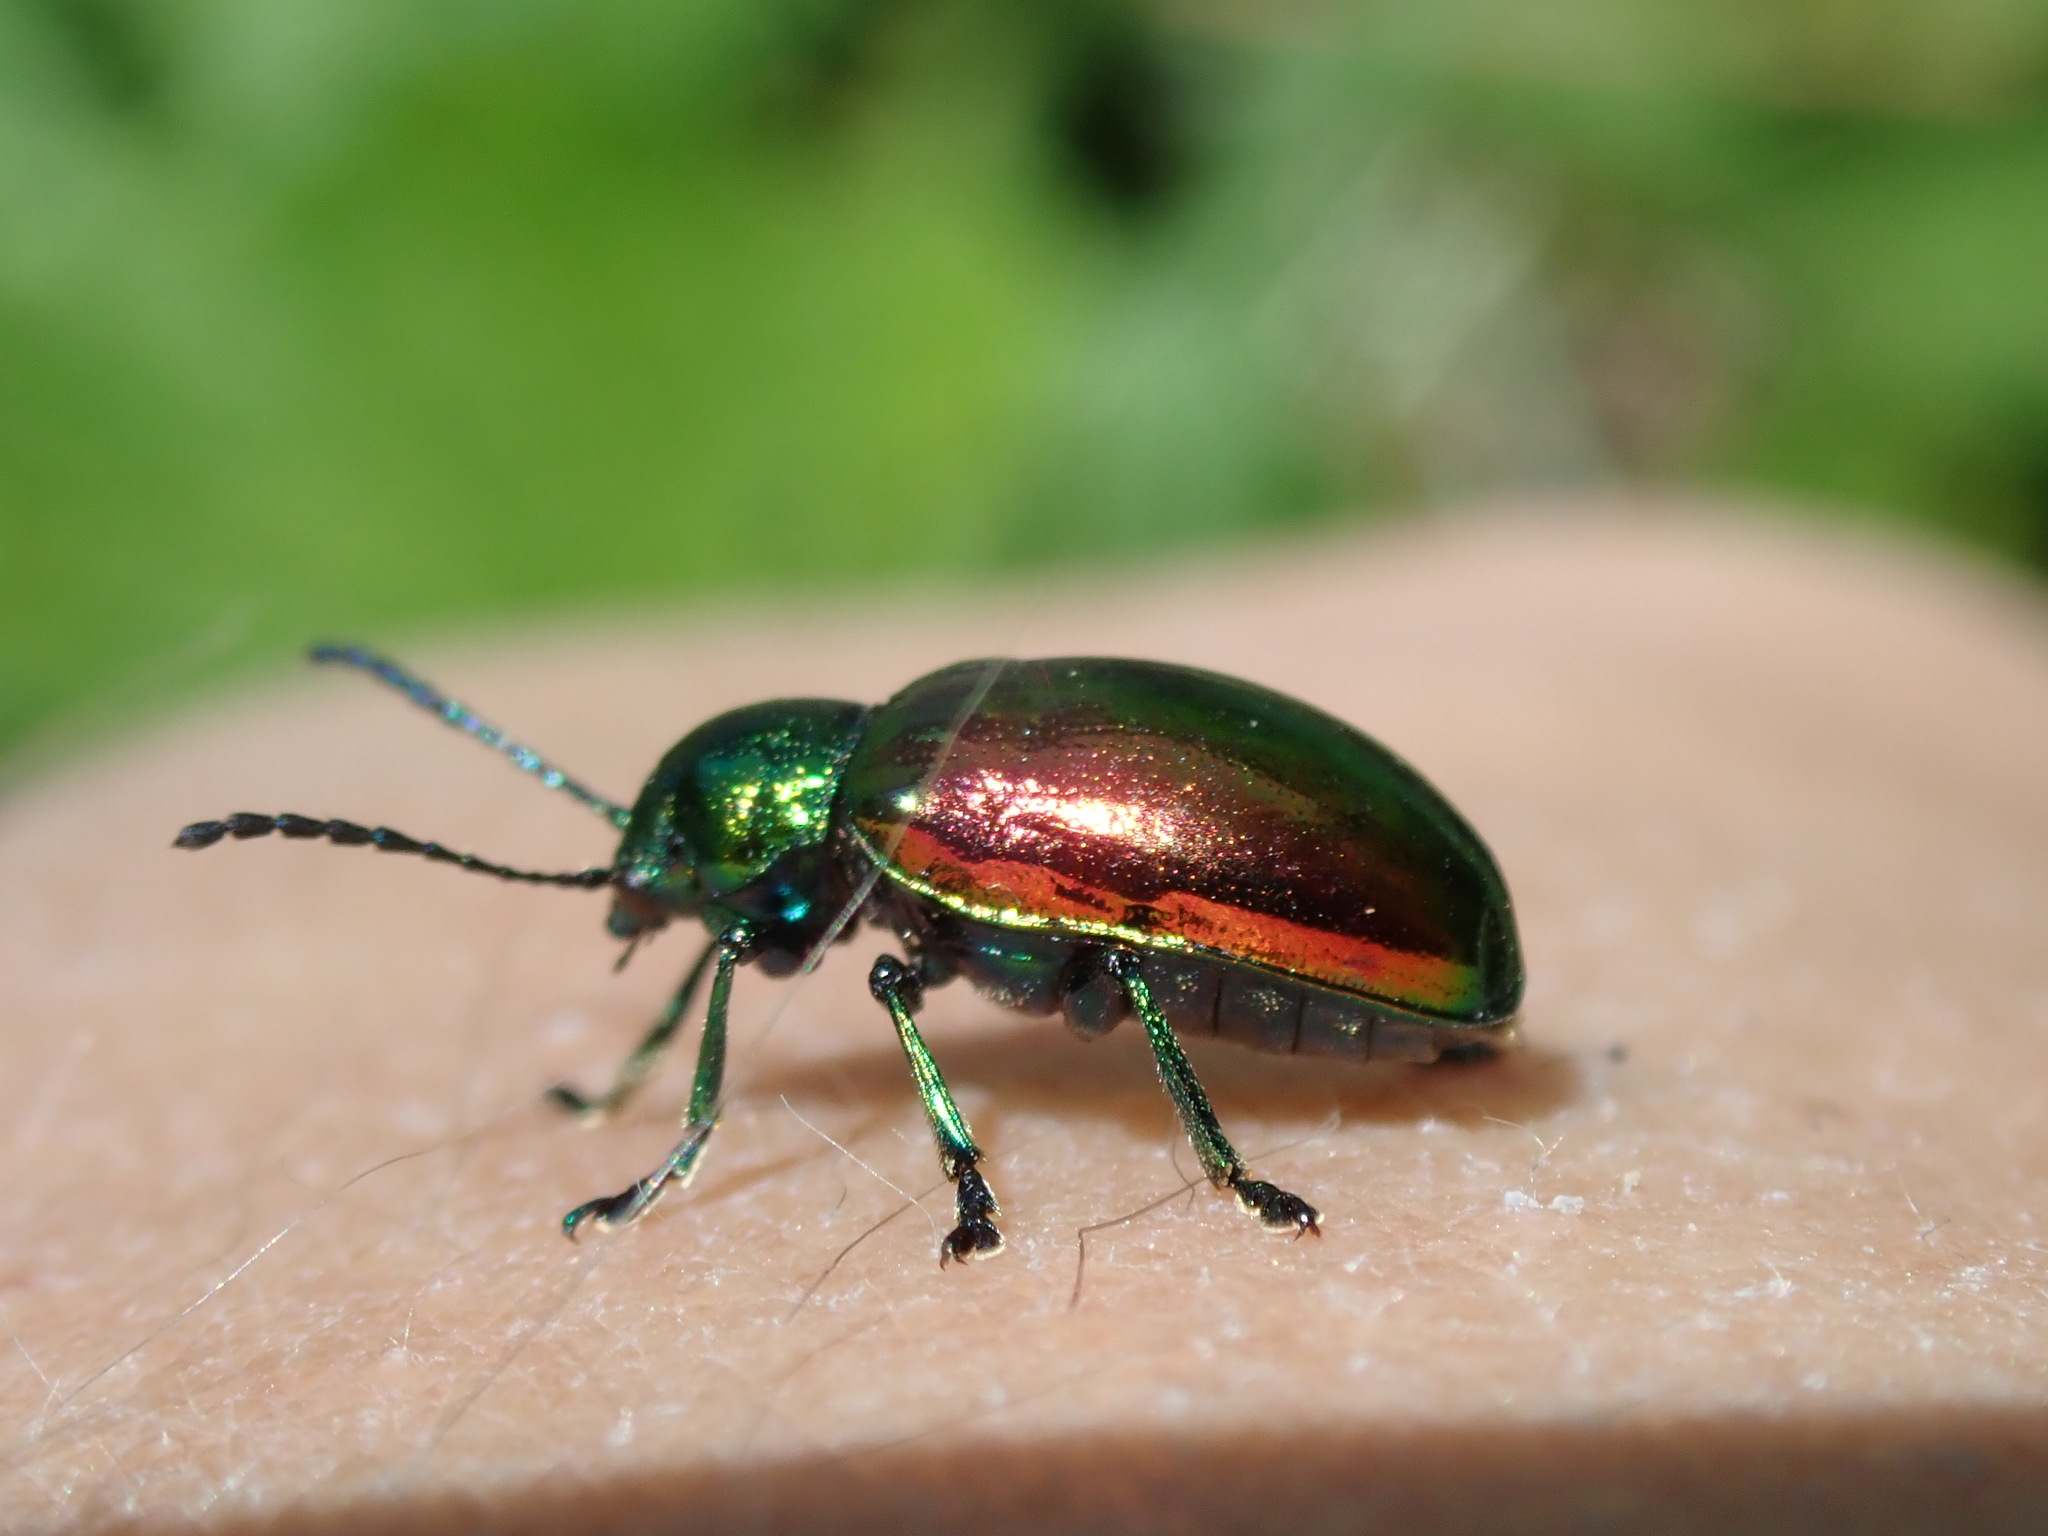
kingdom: Animalia
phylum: Arthropoda
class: Insecta
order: Coleoptera
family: Chrysomelidae
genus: Chrysochus
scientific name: Chrysochus auratus
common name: Dogbane leaf beetle
